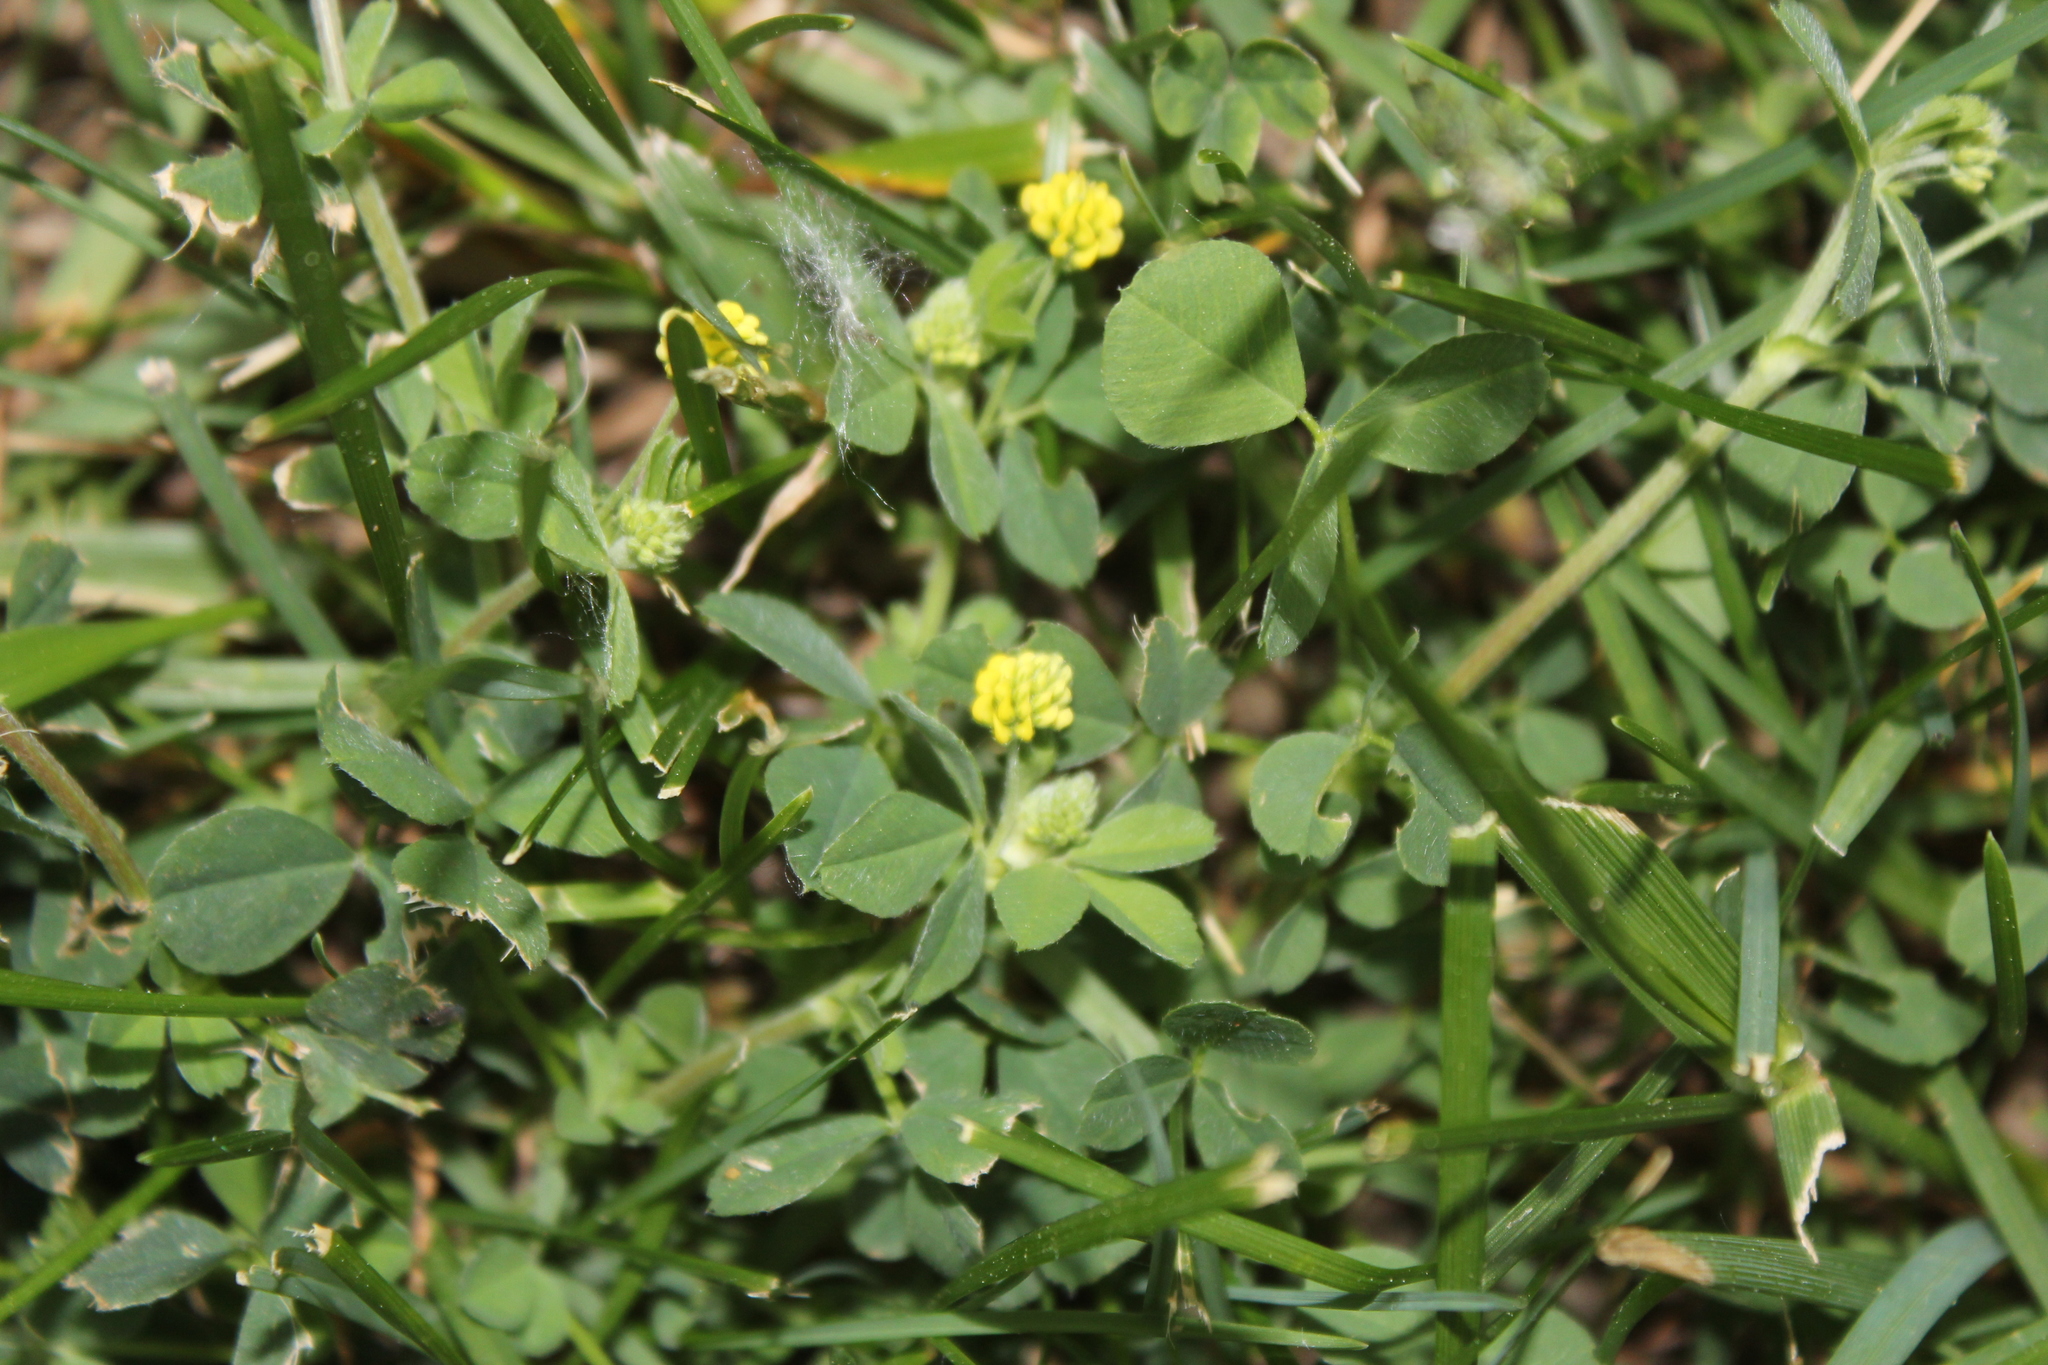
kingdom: Plantae
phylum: Tracheophyta
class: Magnoliopsida
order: Fabales
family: Fabaceae
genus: Medicago
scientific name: Medicago lupulina
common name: Black medick
